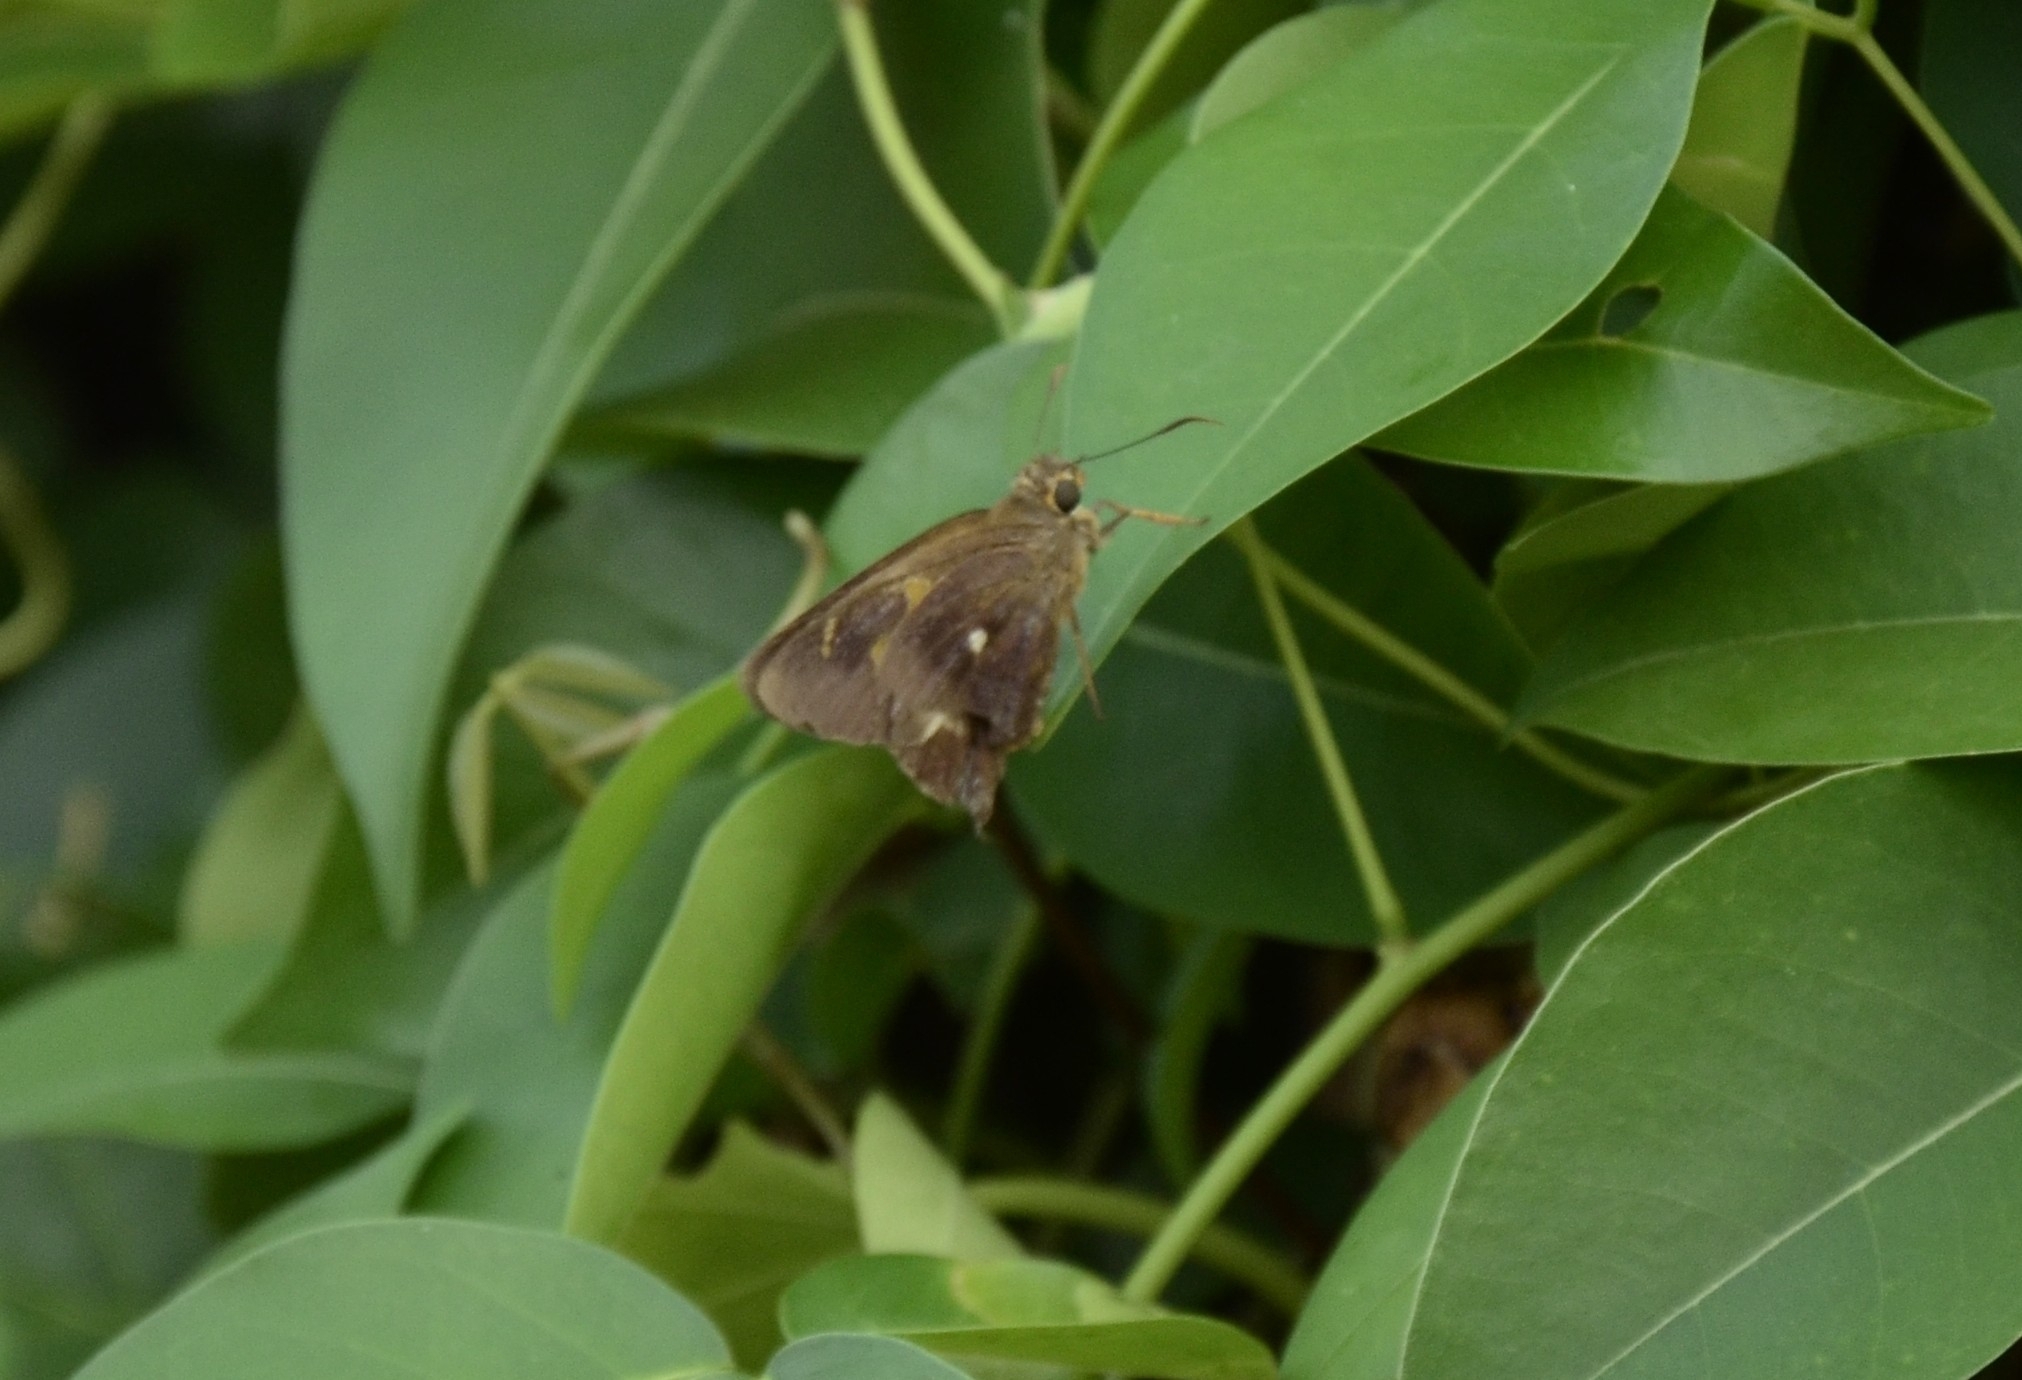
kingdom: Animalia
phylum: Arthropoda
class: Insecta
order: Lepidoptera
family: Hesperiidae
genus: Hasora
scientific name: Hasora badra
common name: Common awl
